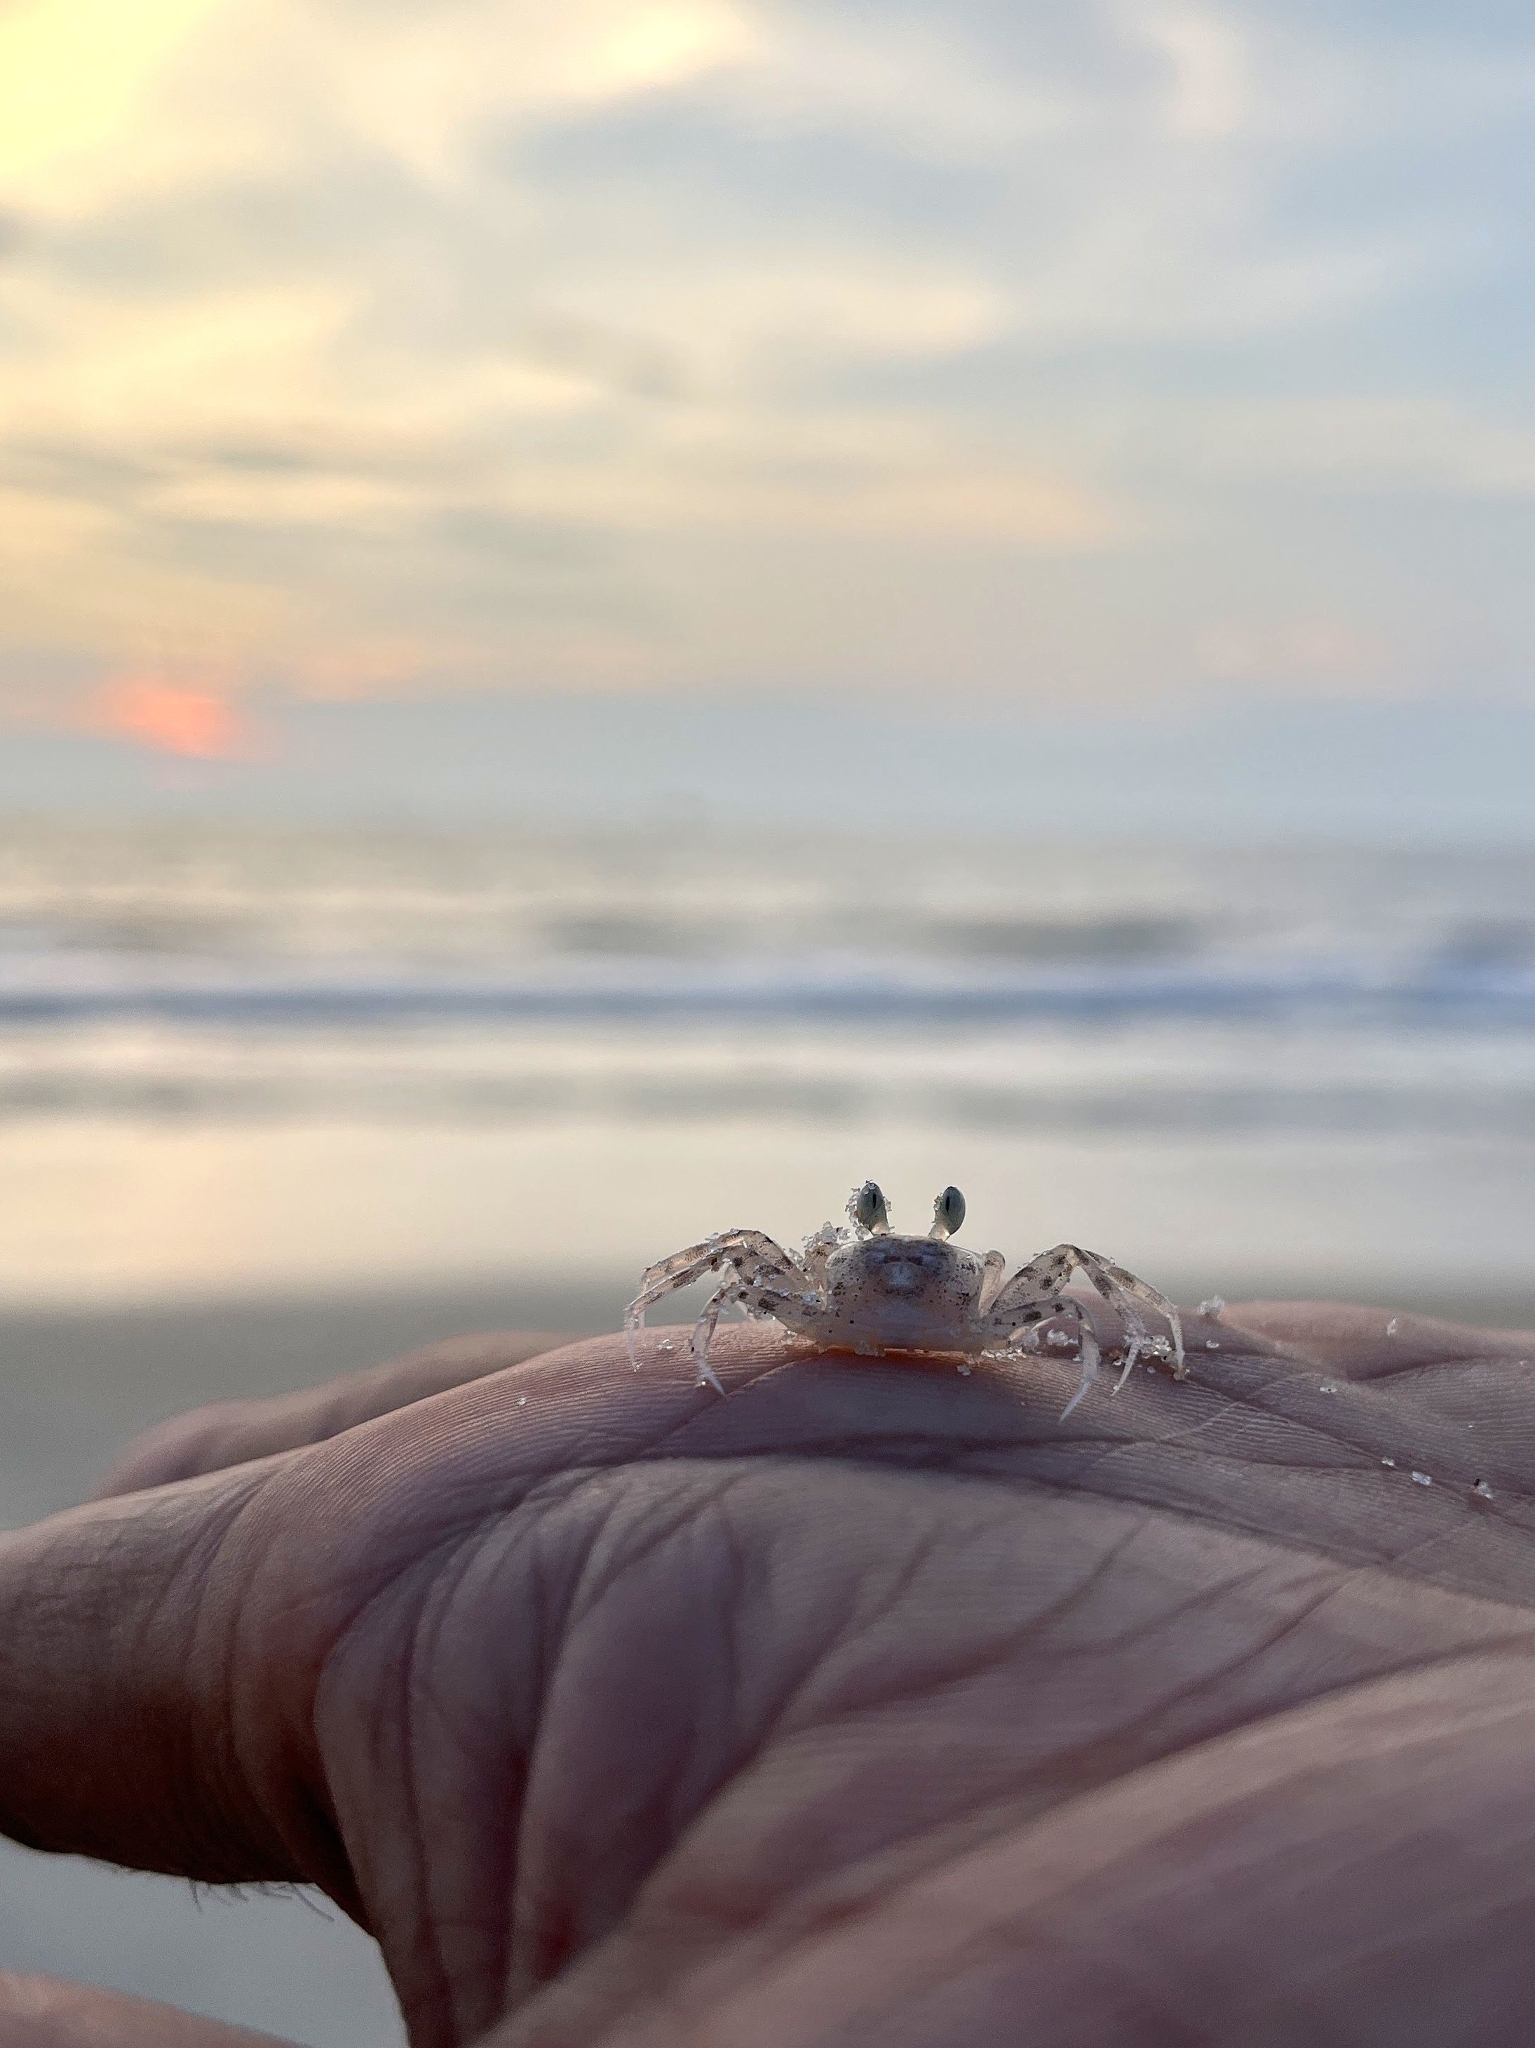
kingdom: Animalia
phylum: Arthropoda
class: Malacostraca
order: Decapoda
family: Ocypodidae
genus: Ocypode
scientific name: Ocypode pallidula
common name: Pallid ghost crab
